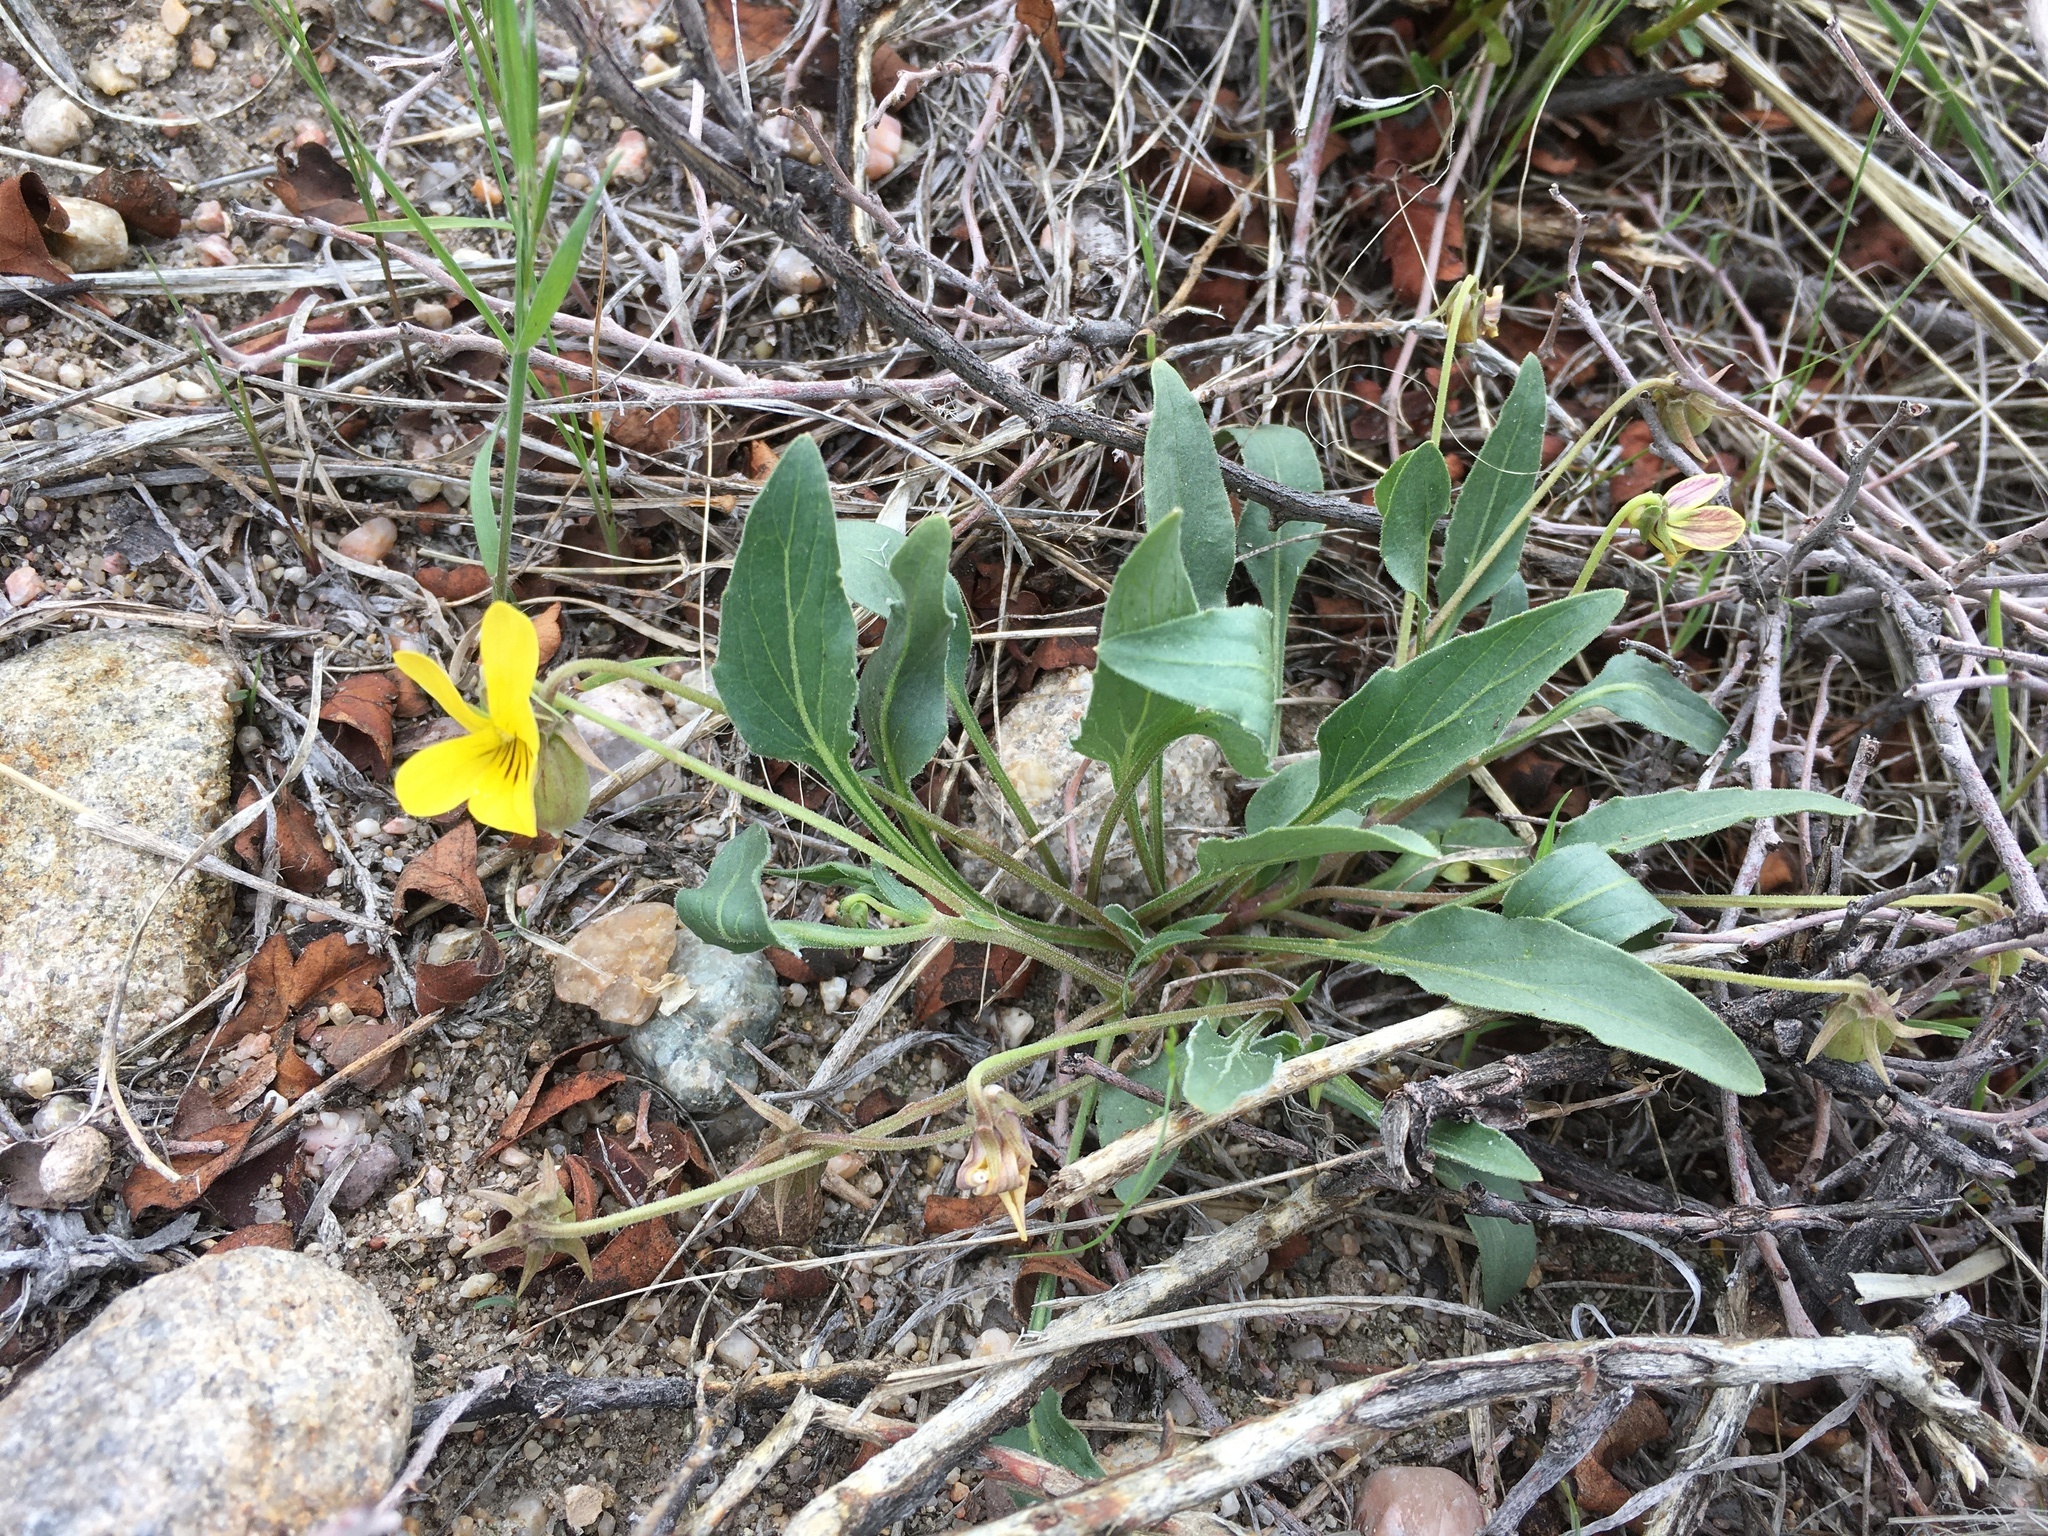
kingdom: Plantae
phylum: Tracheophyta
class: Magnoliopsida
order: Malpighiales
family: Violaceae
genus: Viola
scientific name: Viola nuttallii
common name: Yellow prairie violet
